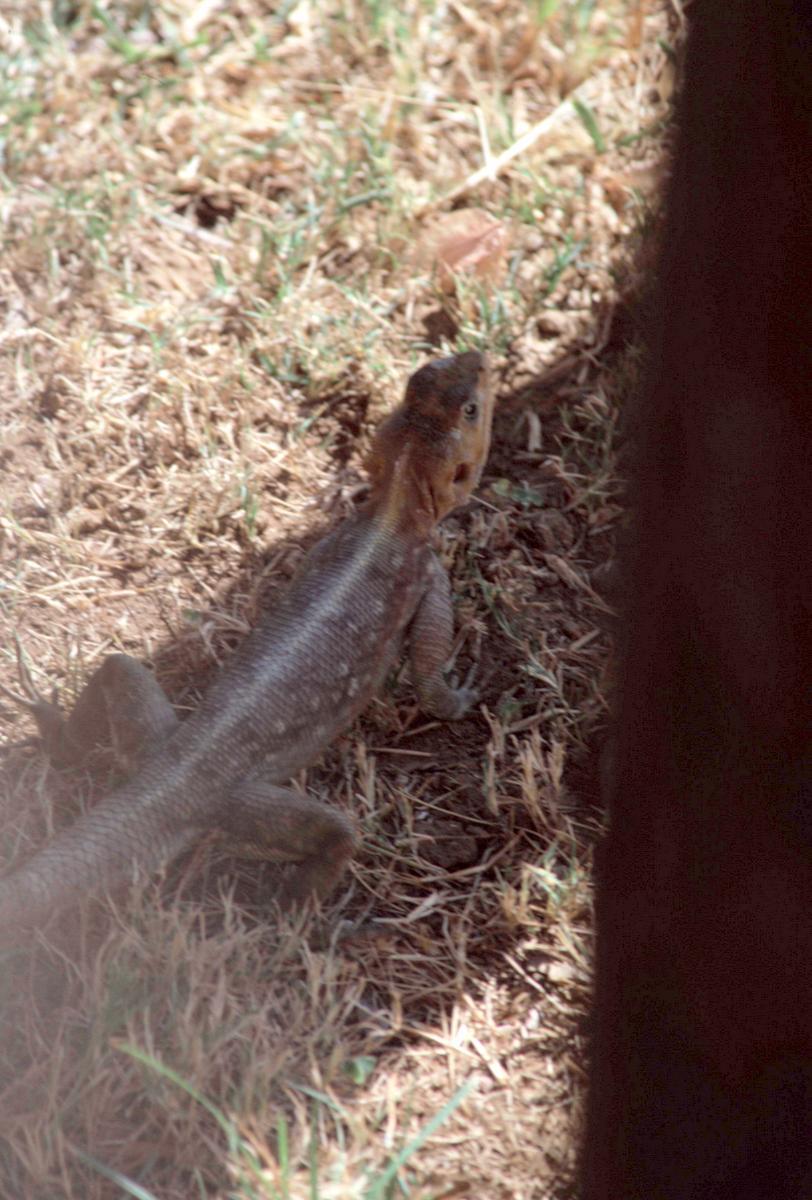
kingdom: Animalia
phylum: Chordata
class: Squamata
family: Agamidae
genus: Agama
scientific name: Agama lionotus
